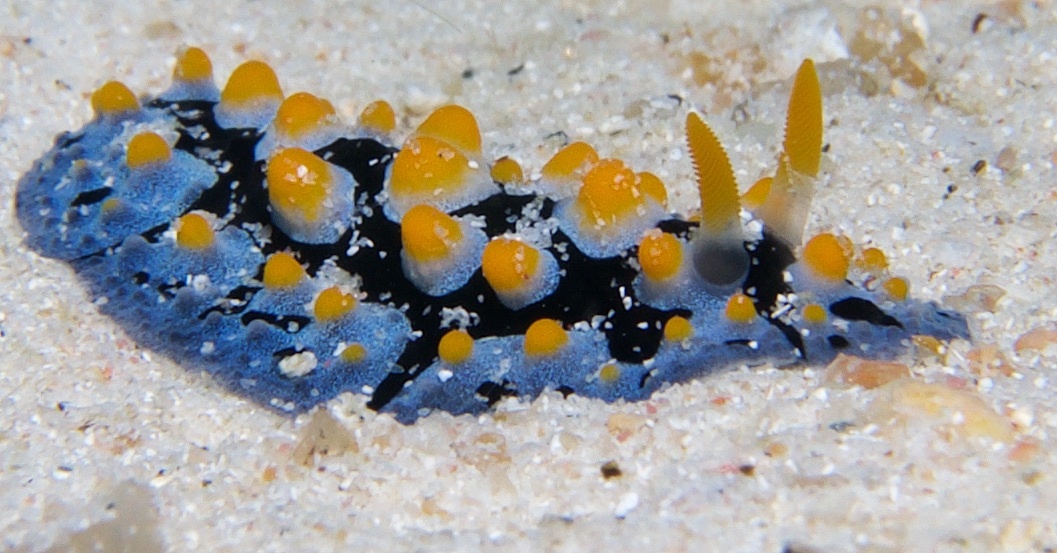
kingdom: Animalia
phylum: Mollusca
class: Gastropoda
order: Nudibranchia
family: Phyllidiidae
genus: Phyllidia
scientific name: Phyllidia picta
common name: Black-rayed phyllidia
